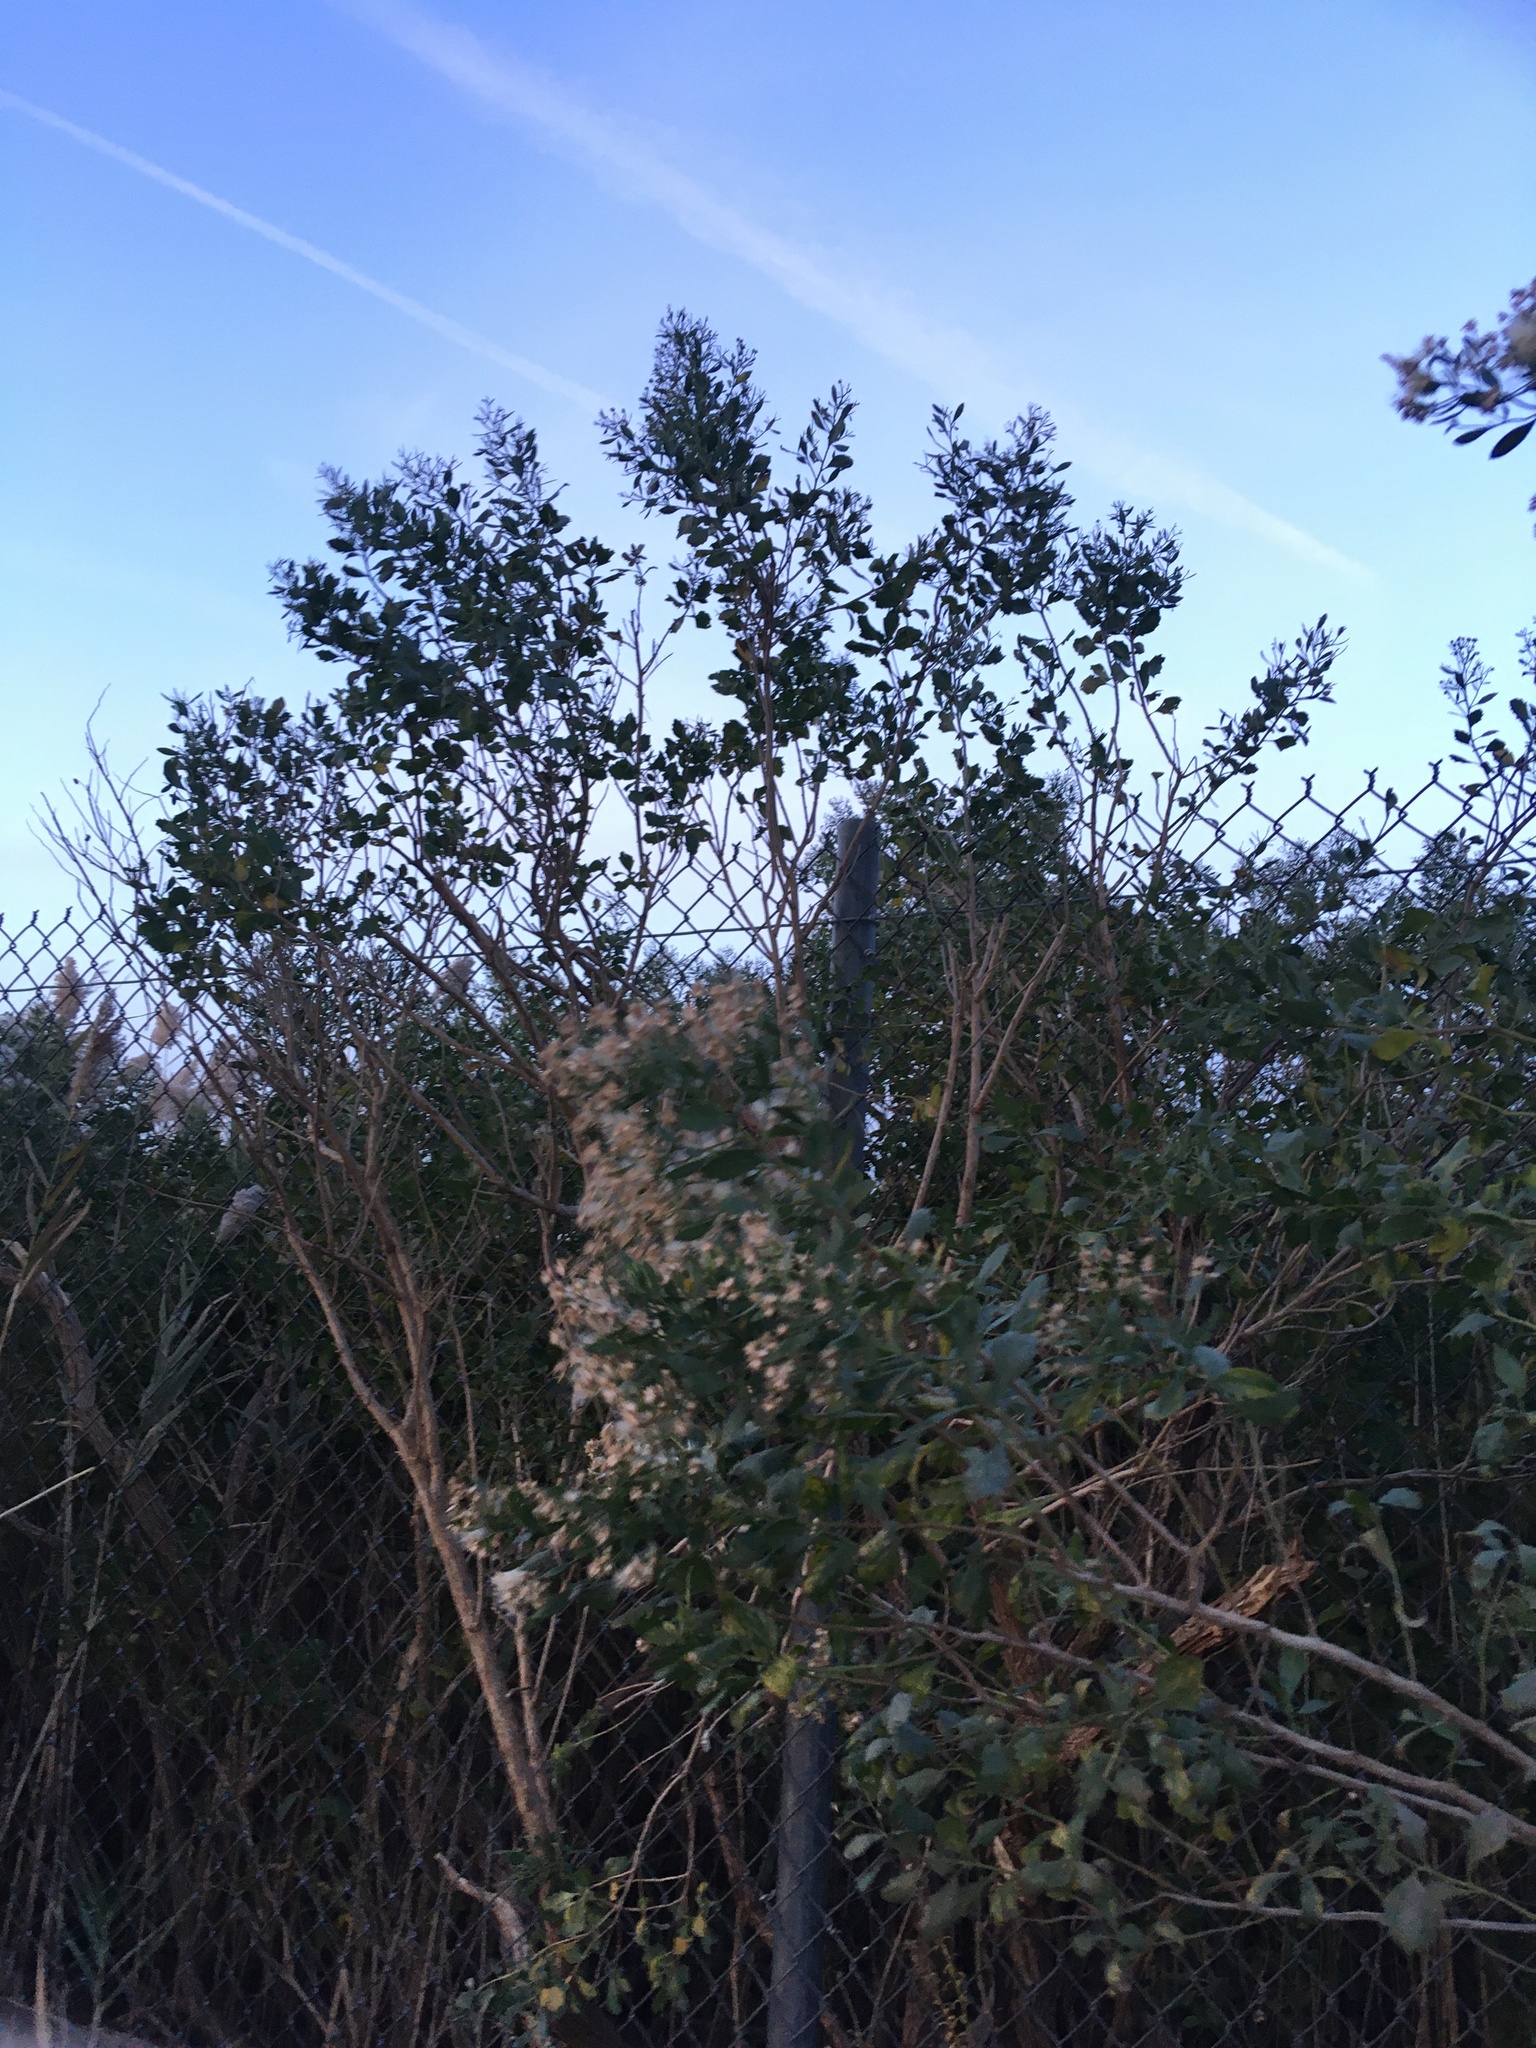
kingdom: Plantae
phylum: Tracheophyta
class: Magnoliopsida
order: Asterales
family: Asteraceae
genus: Baccharis
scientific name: Baccharis halimifolia
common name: Eastern baccharis
